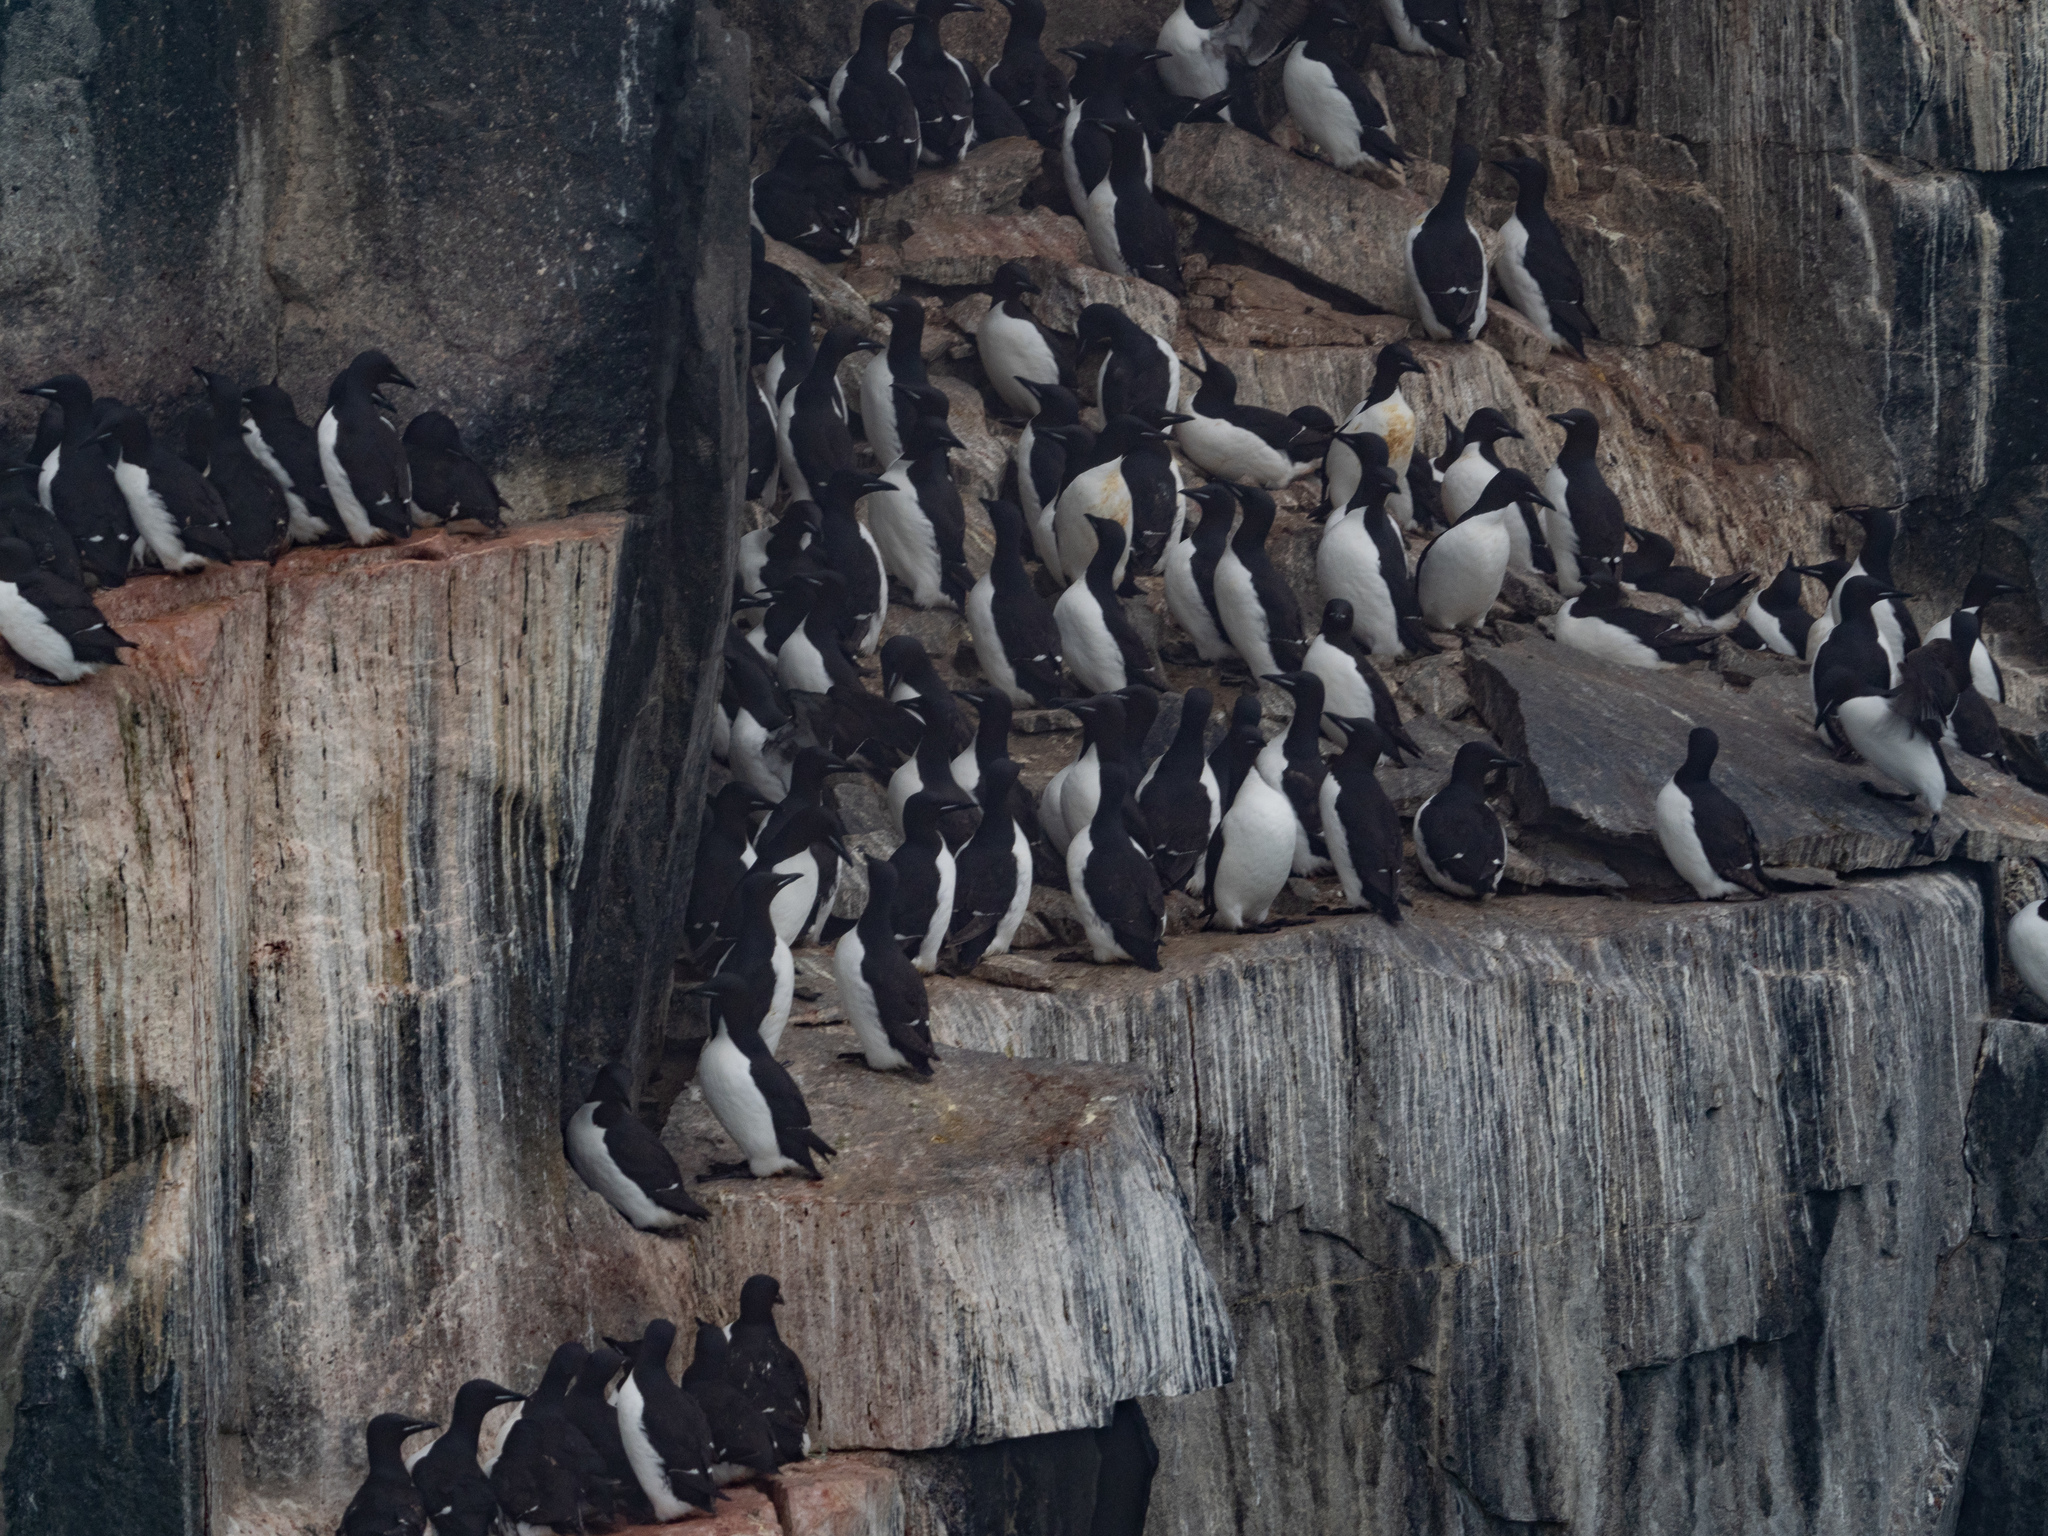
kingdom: Animalia
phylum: Chordata
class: Aves
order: Charadriiformes
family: Alcidae
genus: Uria
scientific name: Uria lomvia
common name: Thick-billed murre
